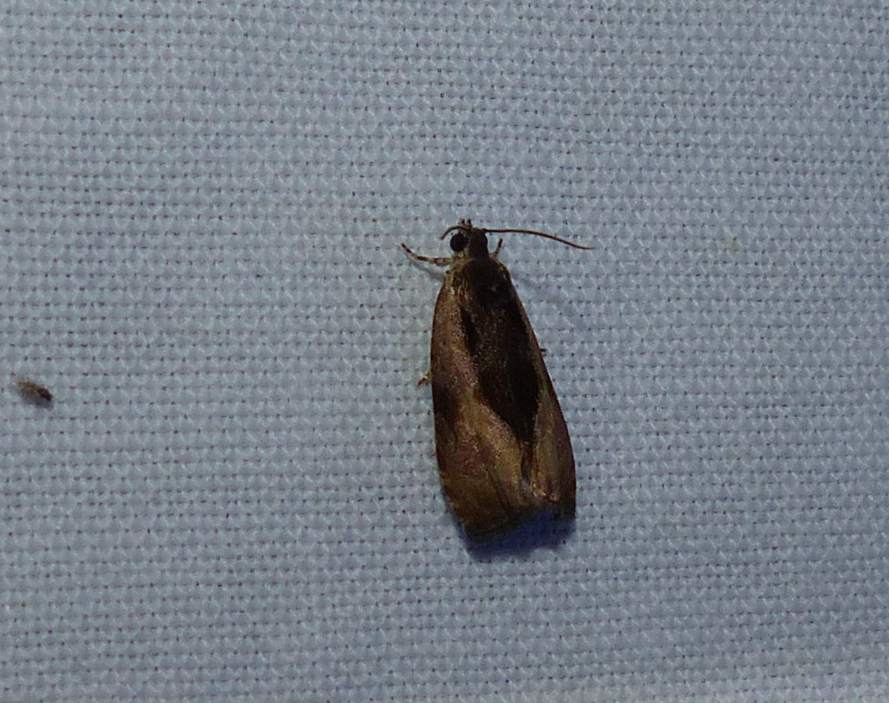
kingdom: Animalia
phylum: Arthropoda
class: Insecta
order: Lepidoptera
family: Tortricidae
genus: Olethreutes
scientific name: Olethreutes nigranum
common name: Variable nigranum moth
